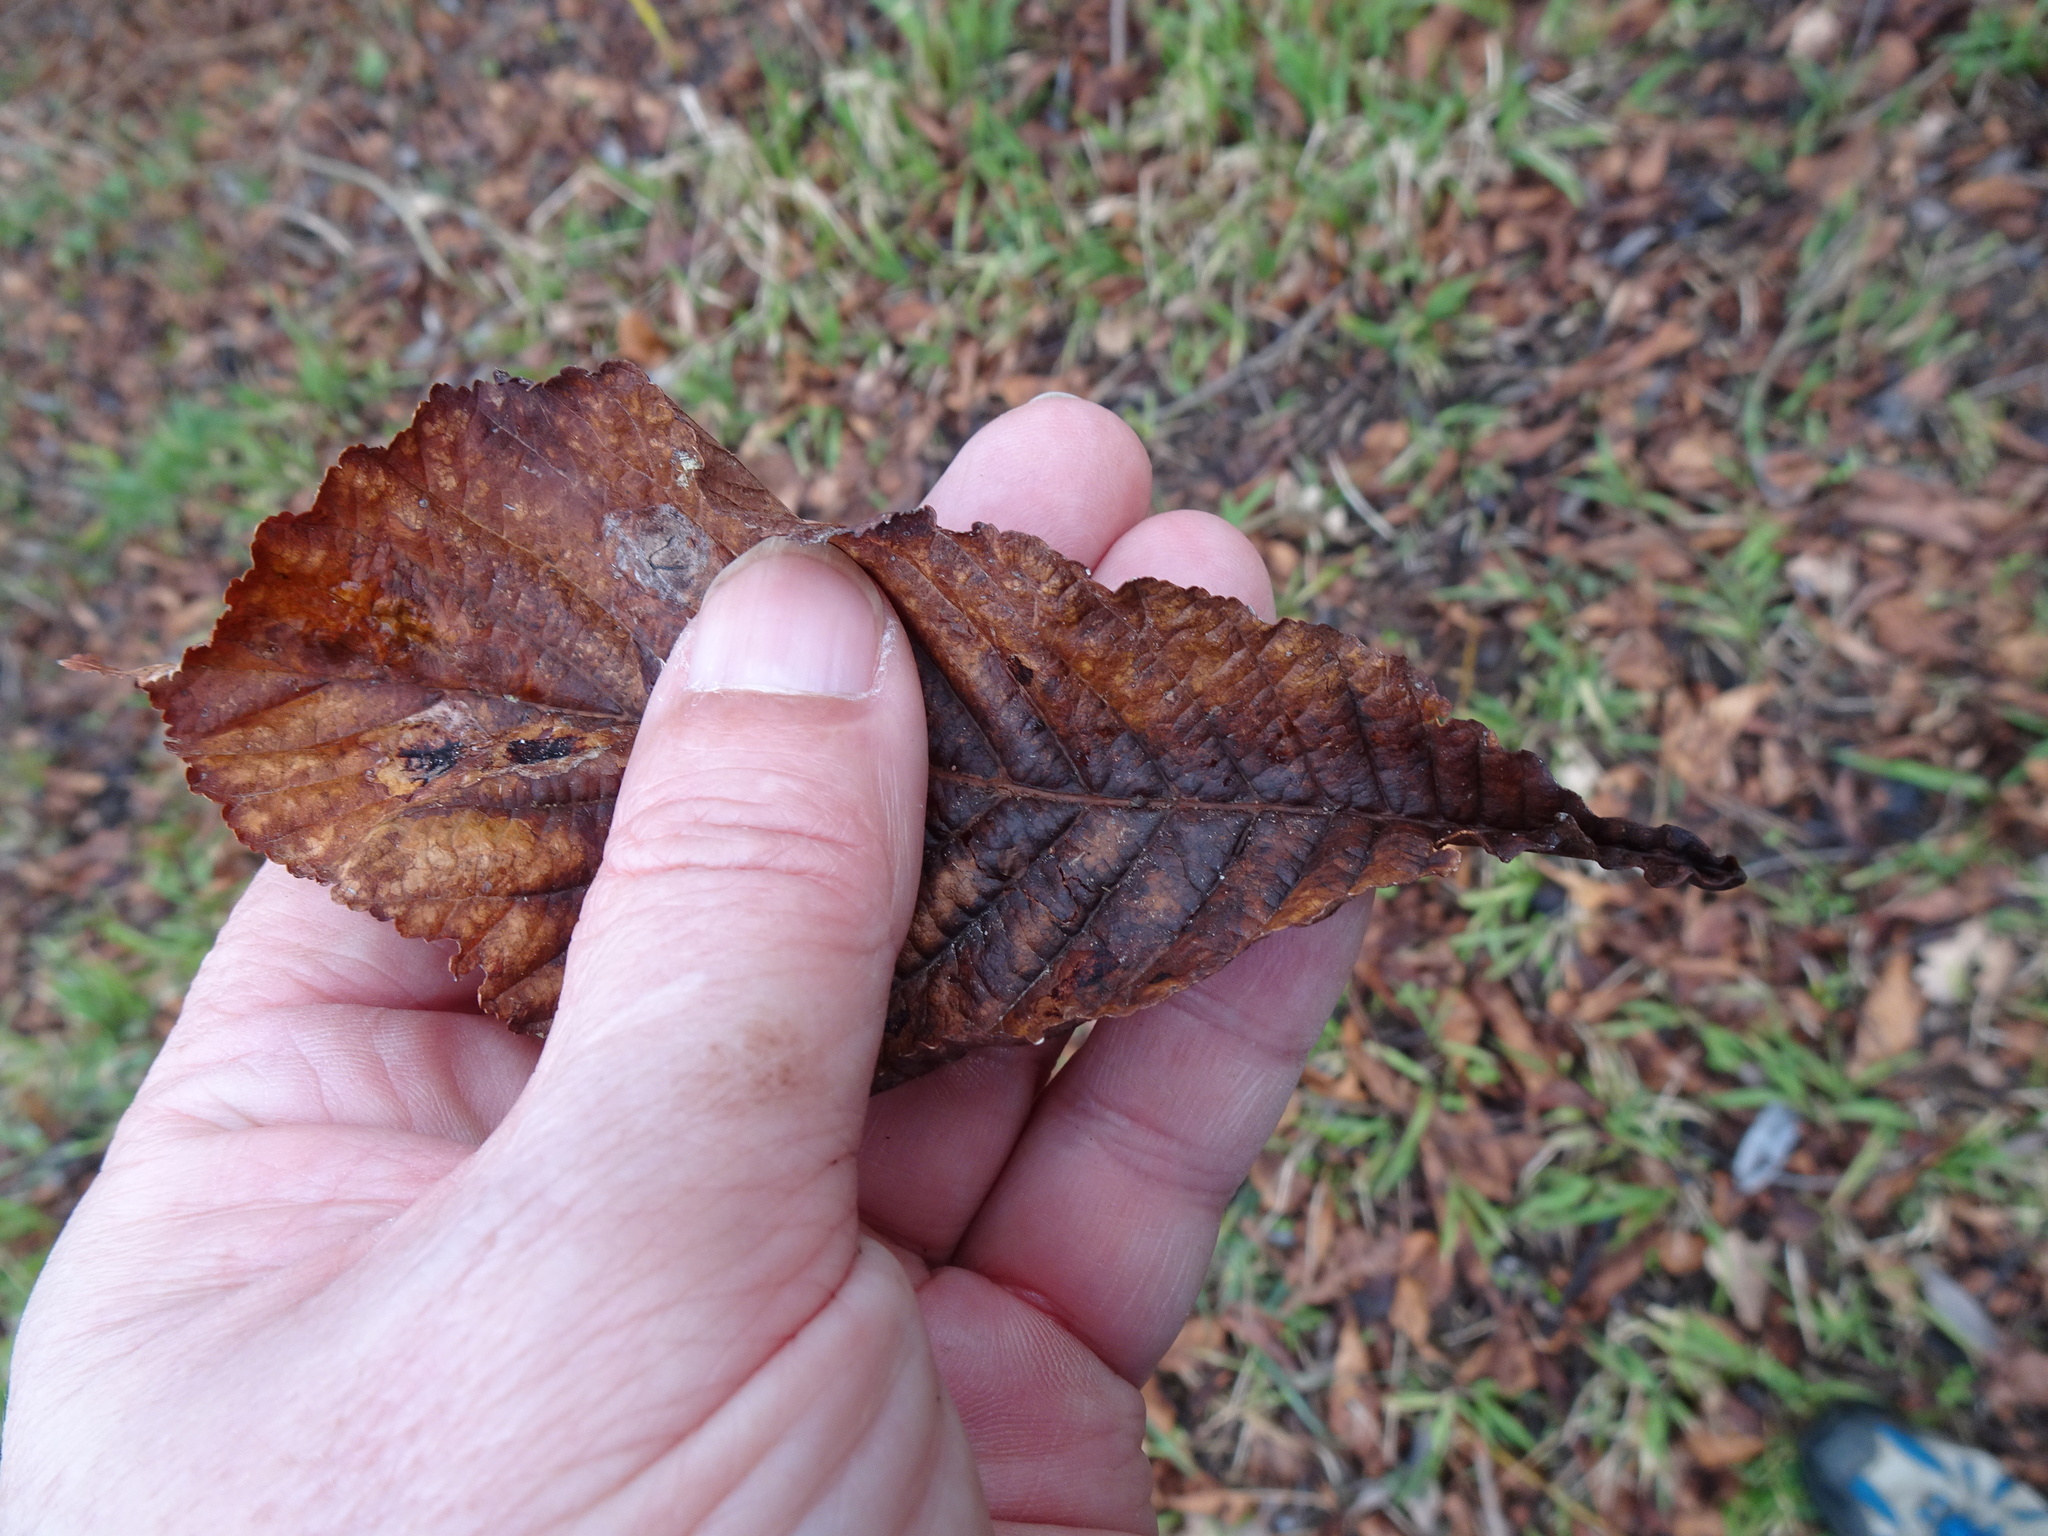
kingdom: Plantae
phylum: Tracheophyta
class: Magnoliopsida
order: Sapindales
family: Sapindaceae
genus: Aesculus
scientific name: Aesculus hippocastanum
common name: Horse-chestnut
